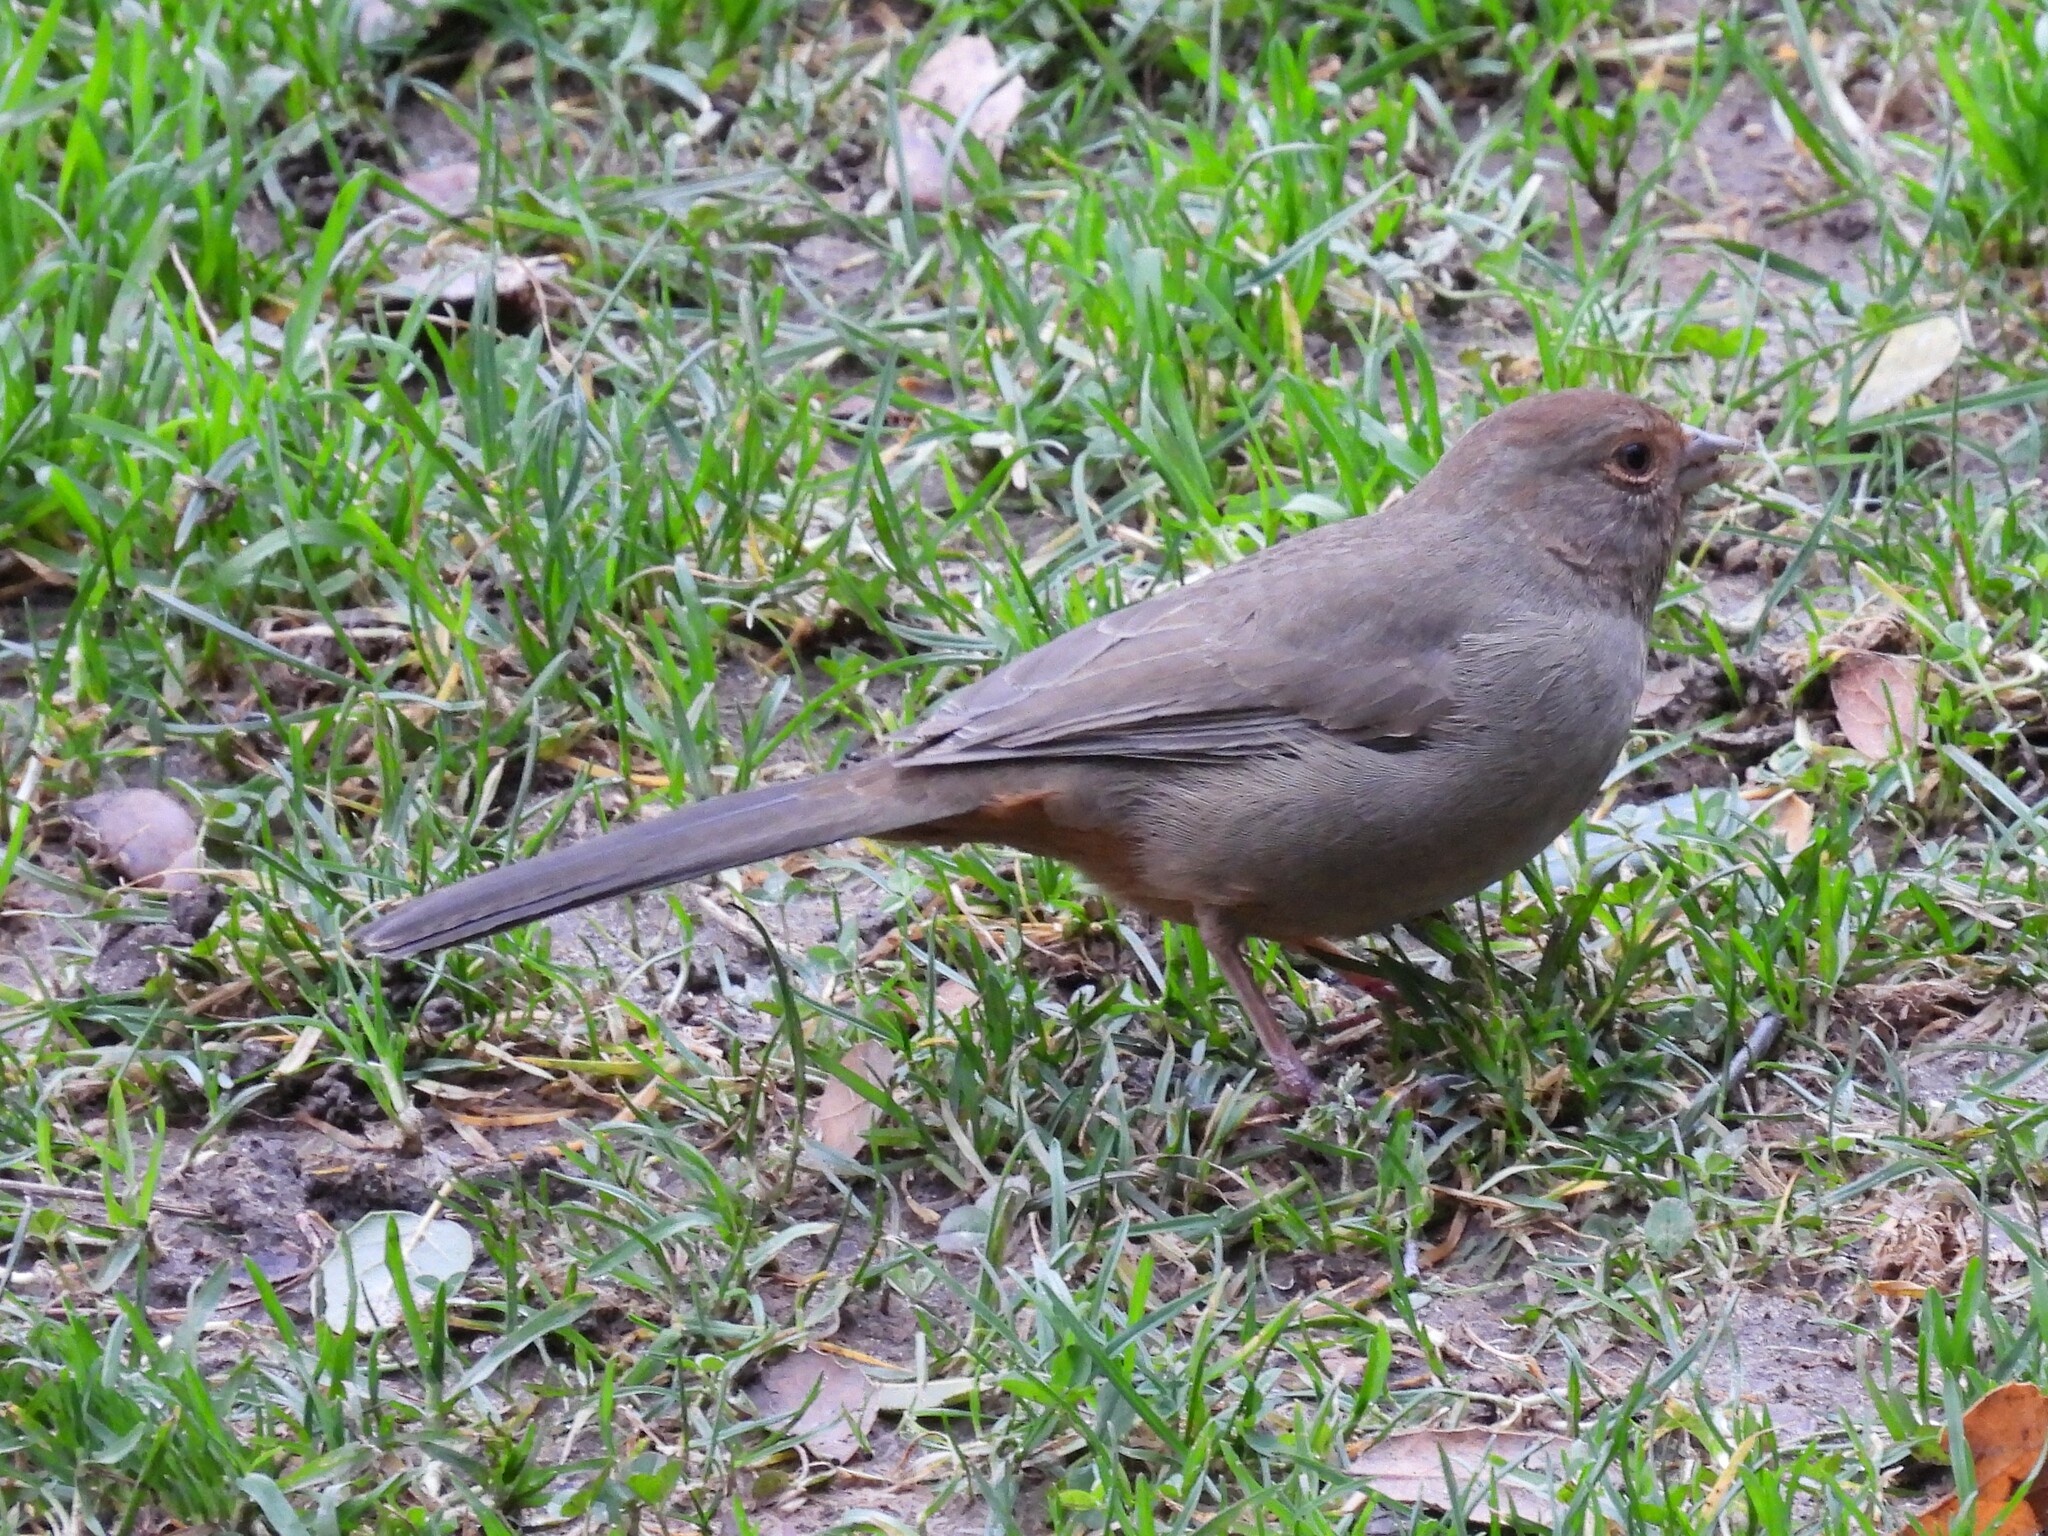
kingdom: Animalia
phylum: Chordata
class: Aves
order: Passeriformes
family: Passerellidae
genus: Melozone
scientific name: Melozone crissalis
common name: California towhee
